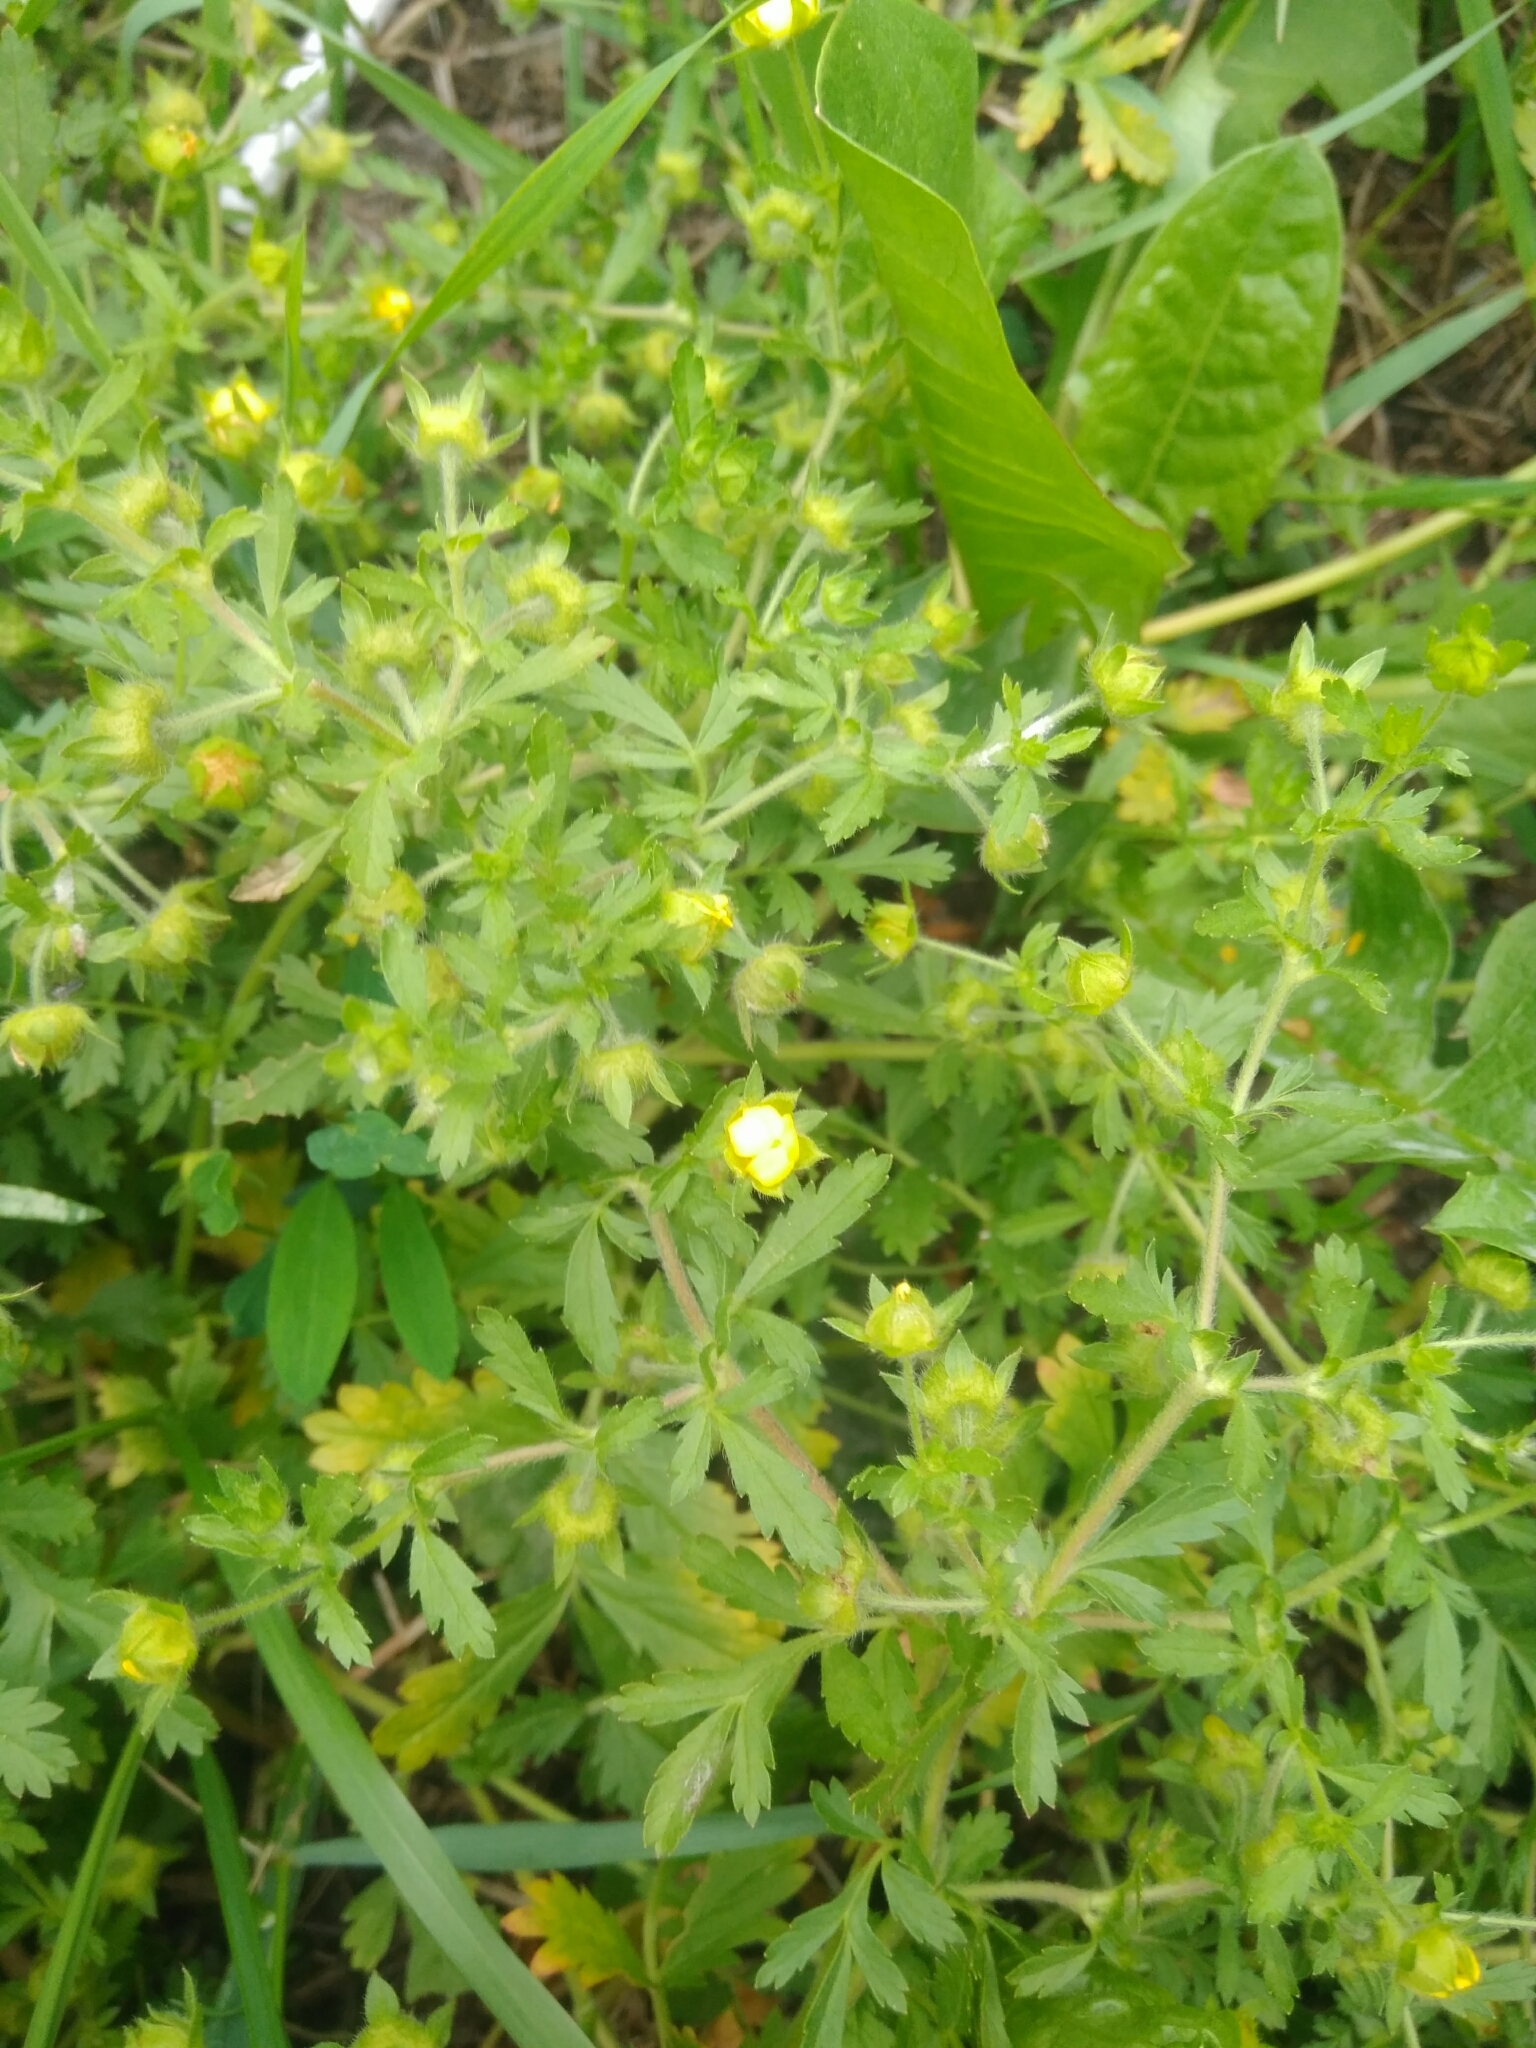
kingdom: Plantae
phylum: Tracheophyta
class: Magnoliopsida
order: Rosales
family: Rosaceae
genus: Potentilla
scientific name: Potentilla supina
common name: Prostrate cinquefoil
